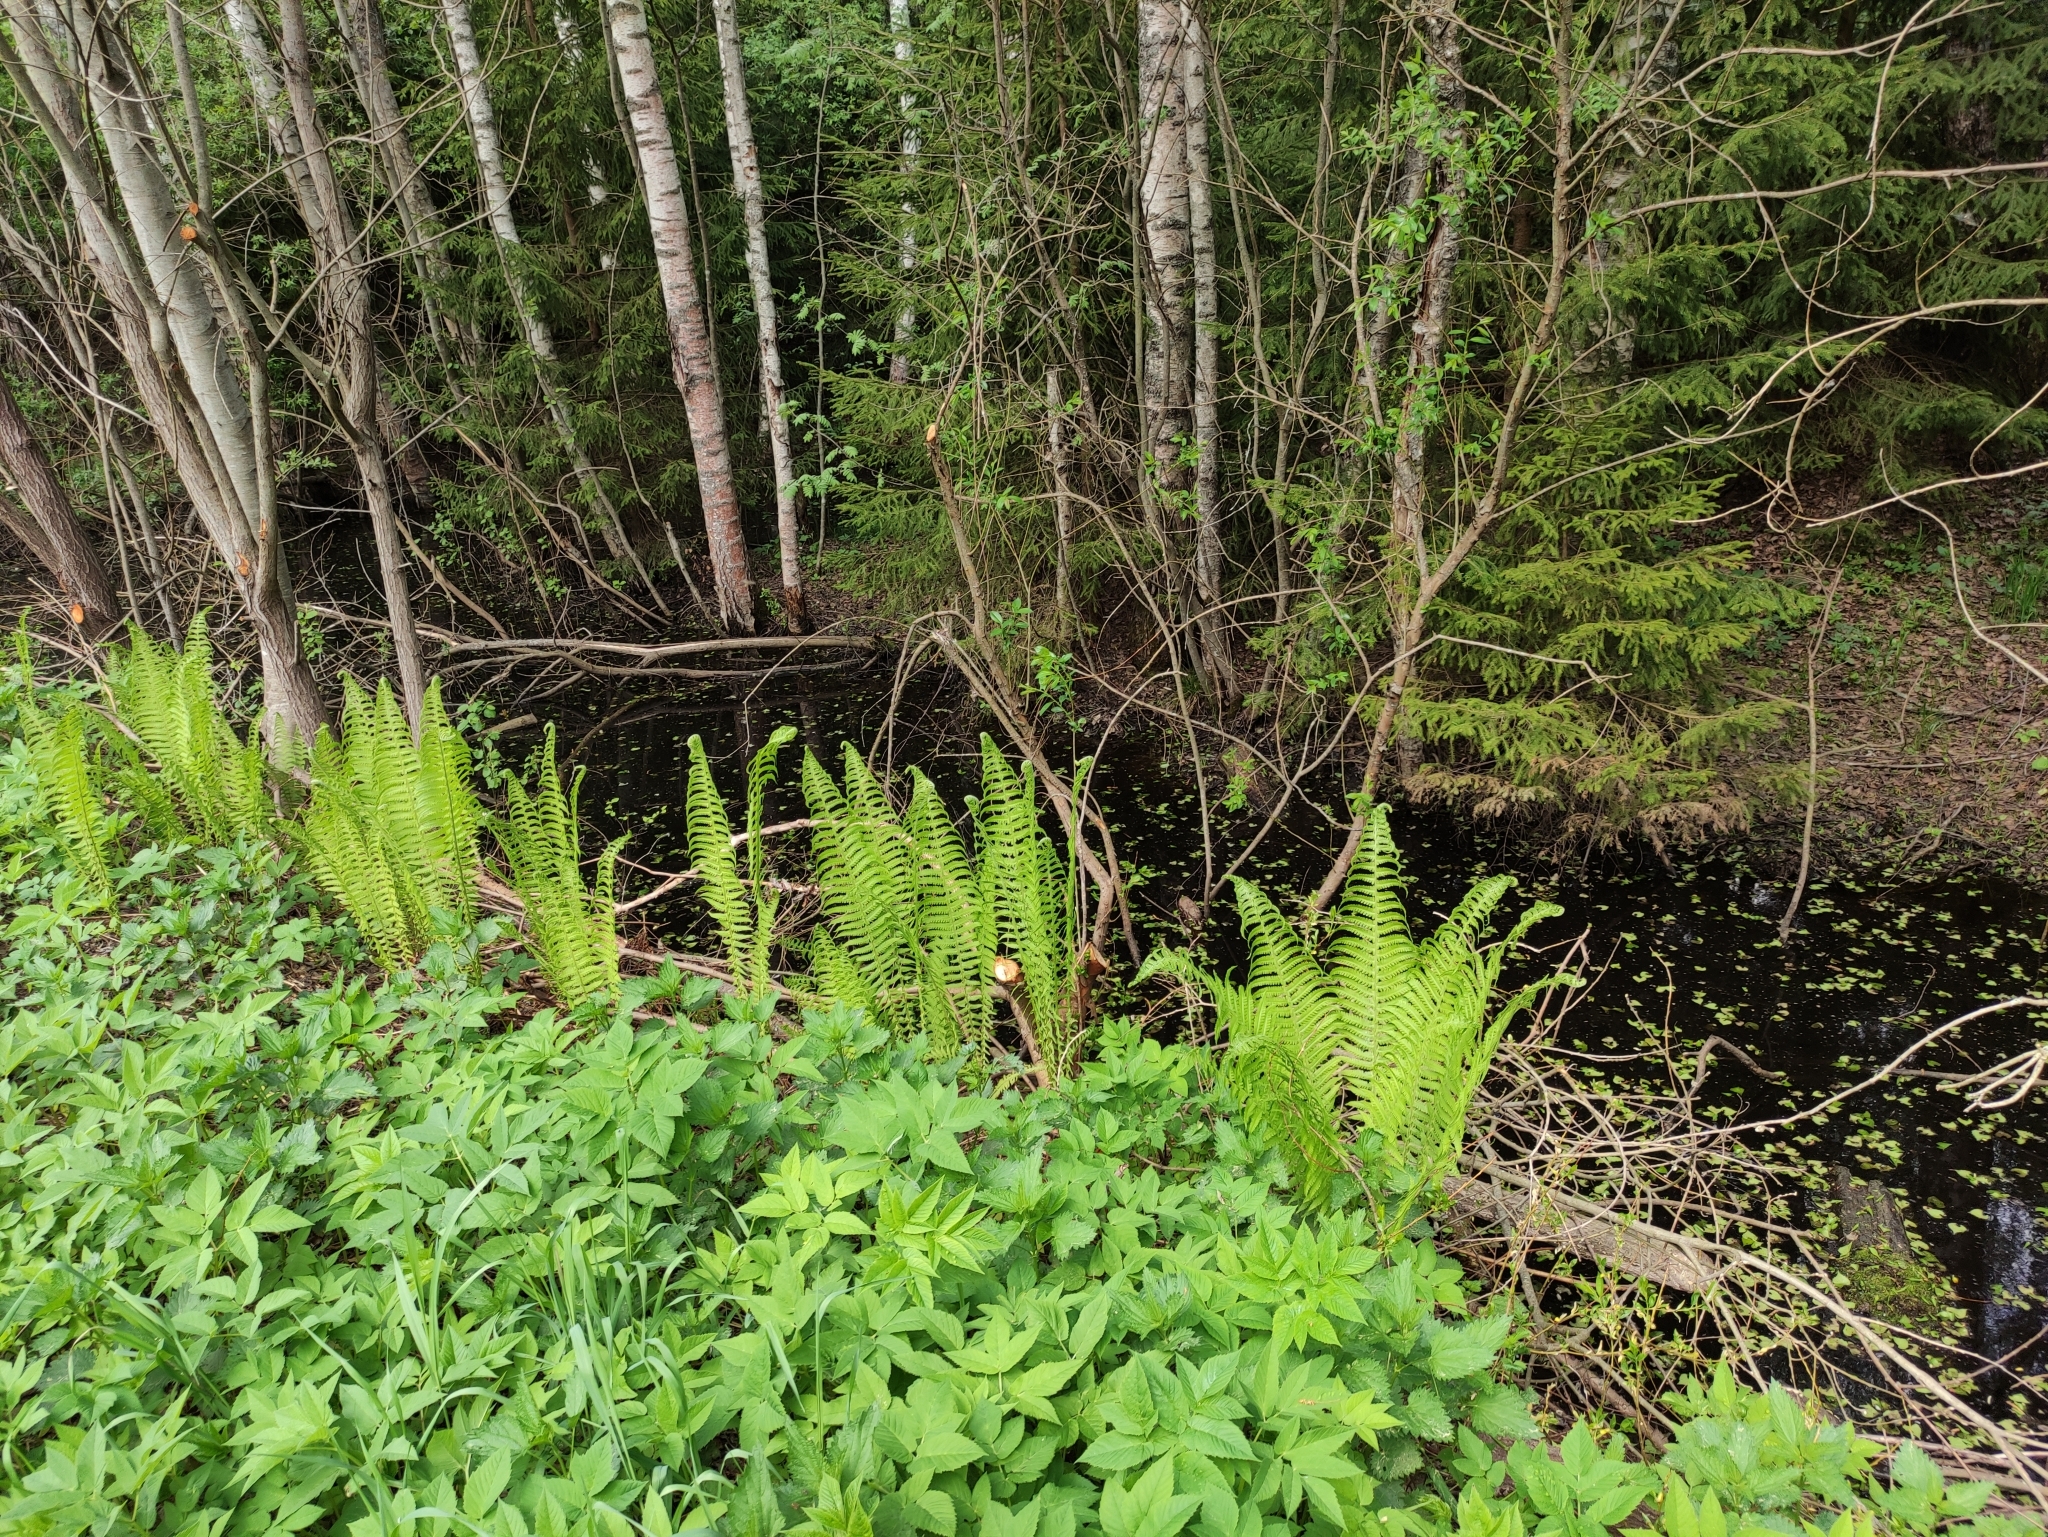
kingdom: Plantae
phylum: Tracheophyta
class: Polypodiopsida
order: Polypodiales
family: Onocleaceae
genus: Matteuccia
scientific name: Matteuccia struthiopteris
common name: Ostrich fern
